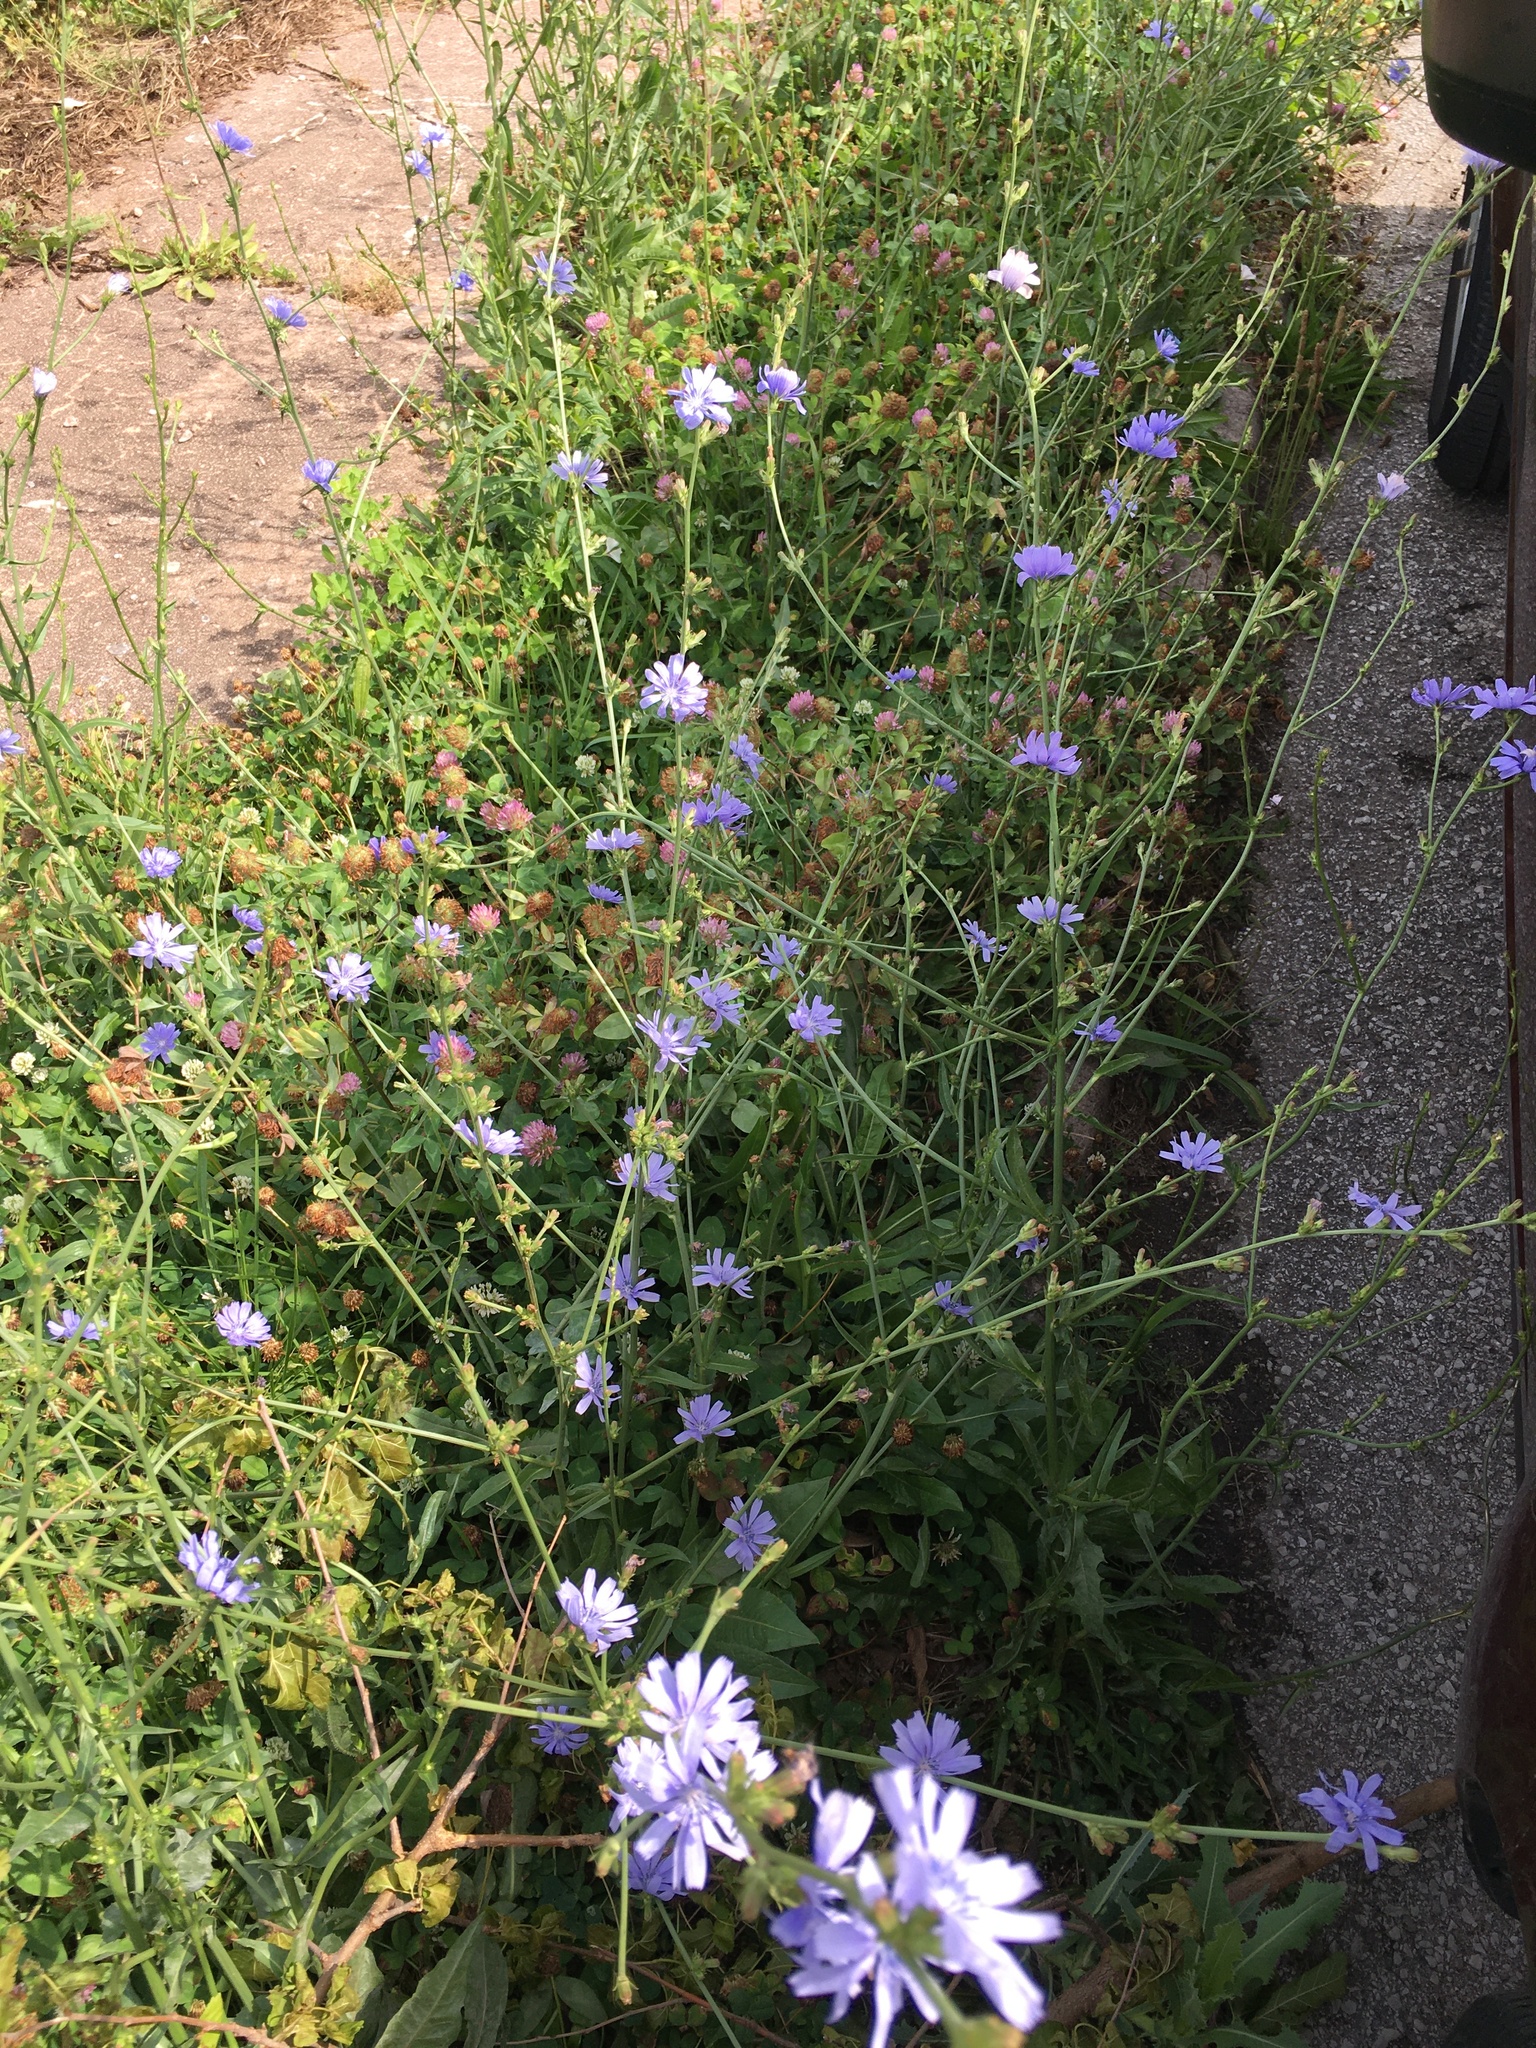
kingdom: Plantae
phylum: Tracheophyta
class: Magnoliopsida
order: Asterales
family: Asteraceae
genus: Cichorium
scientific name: Cichorium intybus
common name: Chicory
